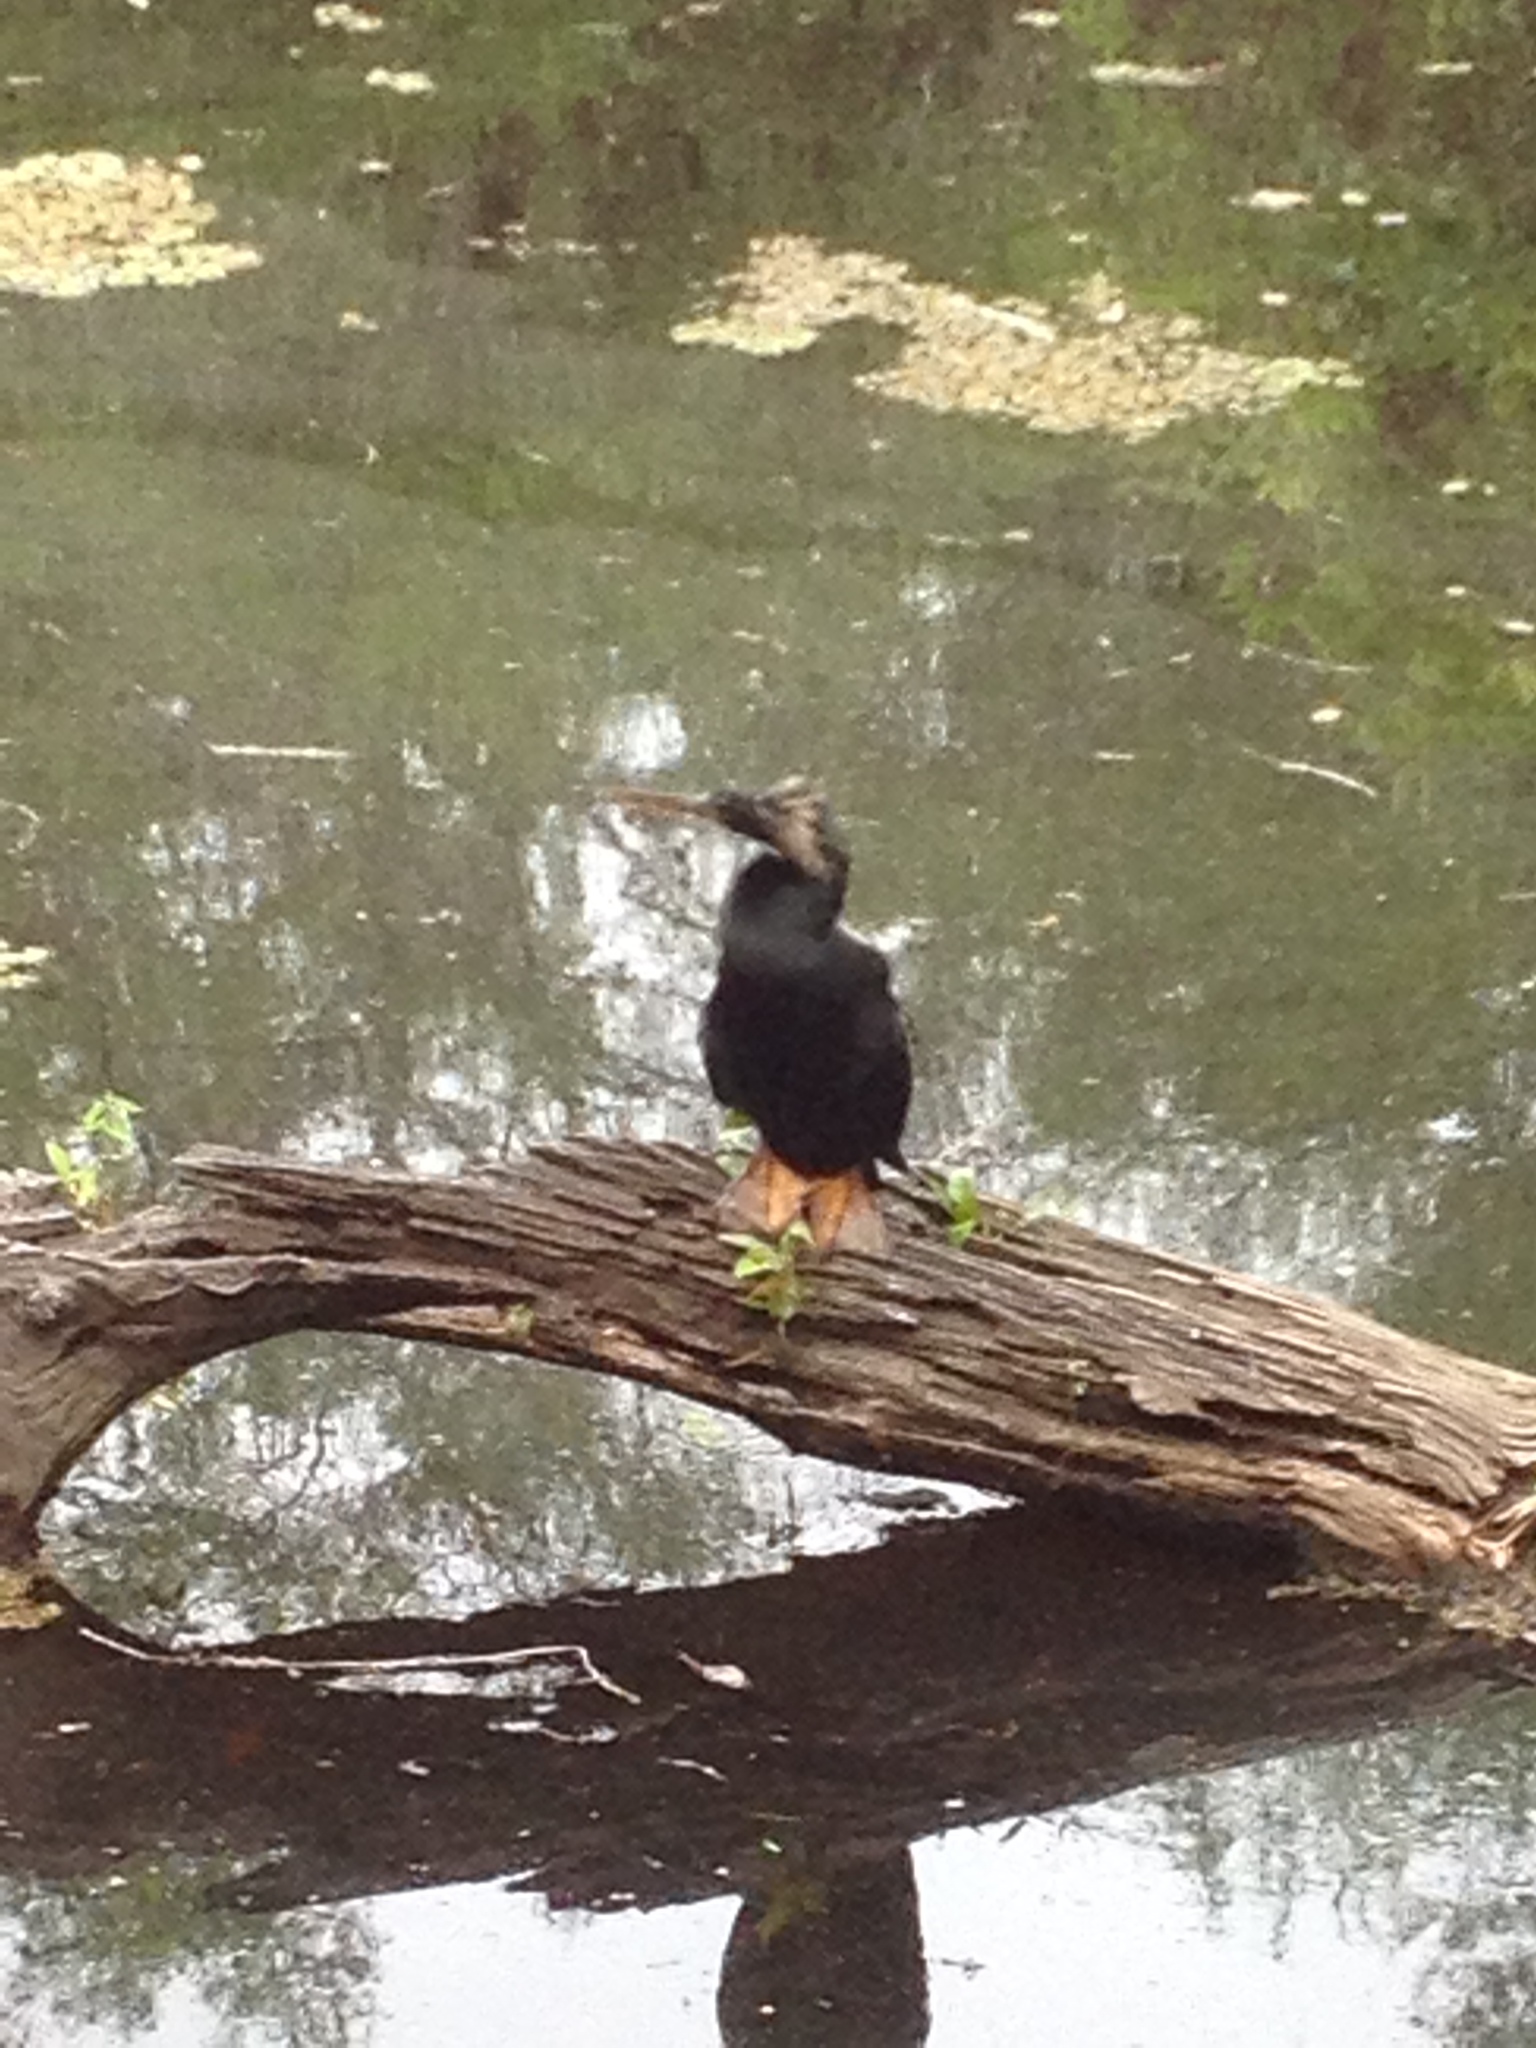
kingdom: Animalia
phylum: Chordata
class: Aves
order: Suliformes
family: Anhingidae
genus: Anhinga
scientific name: Anhinga anhinga
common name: Anhinga
